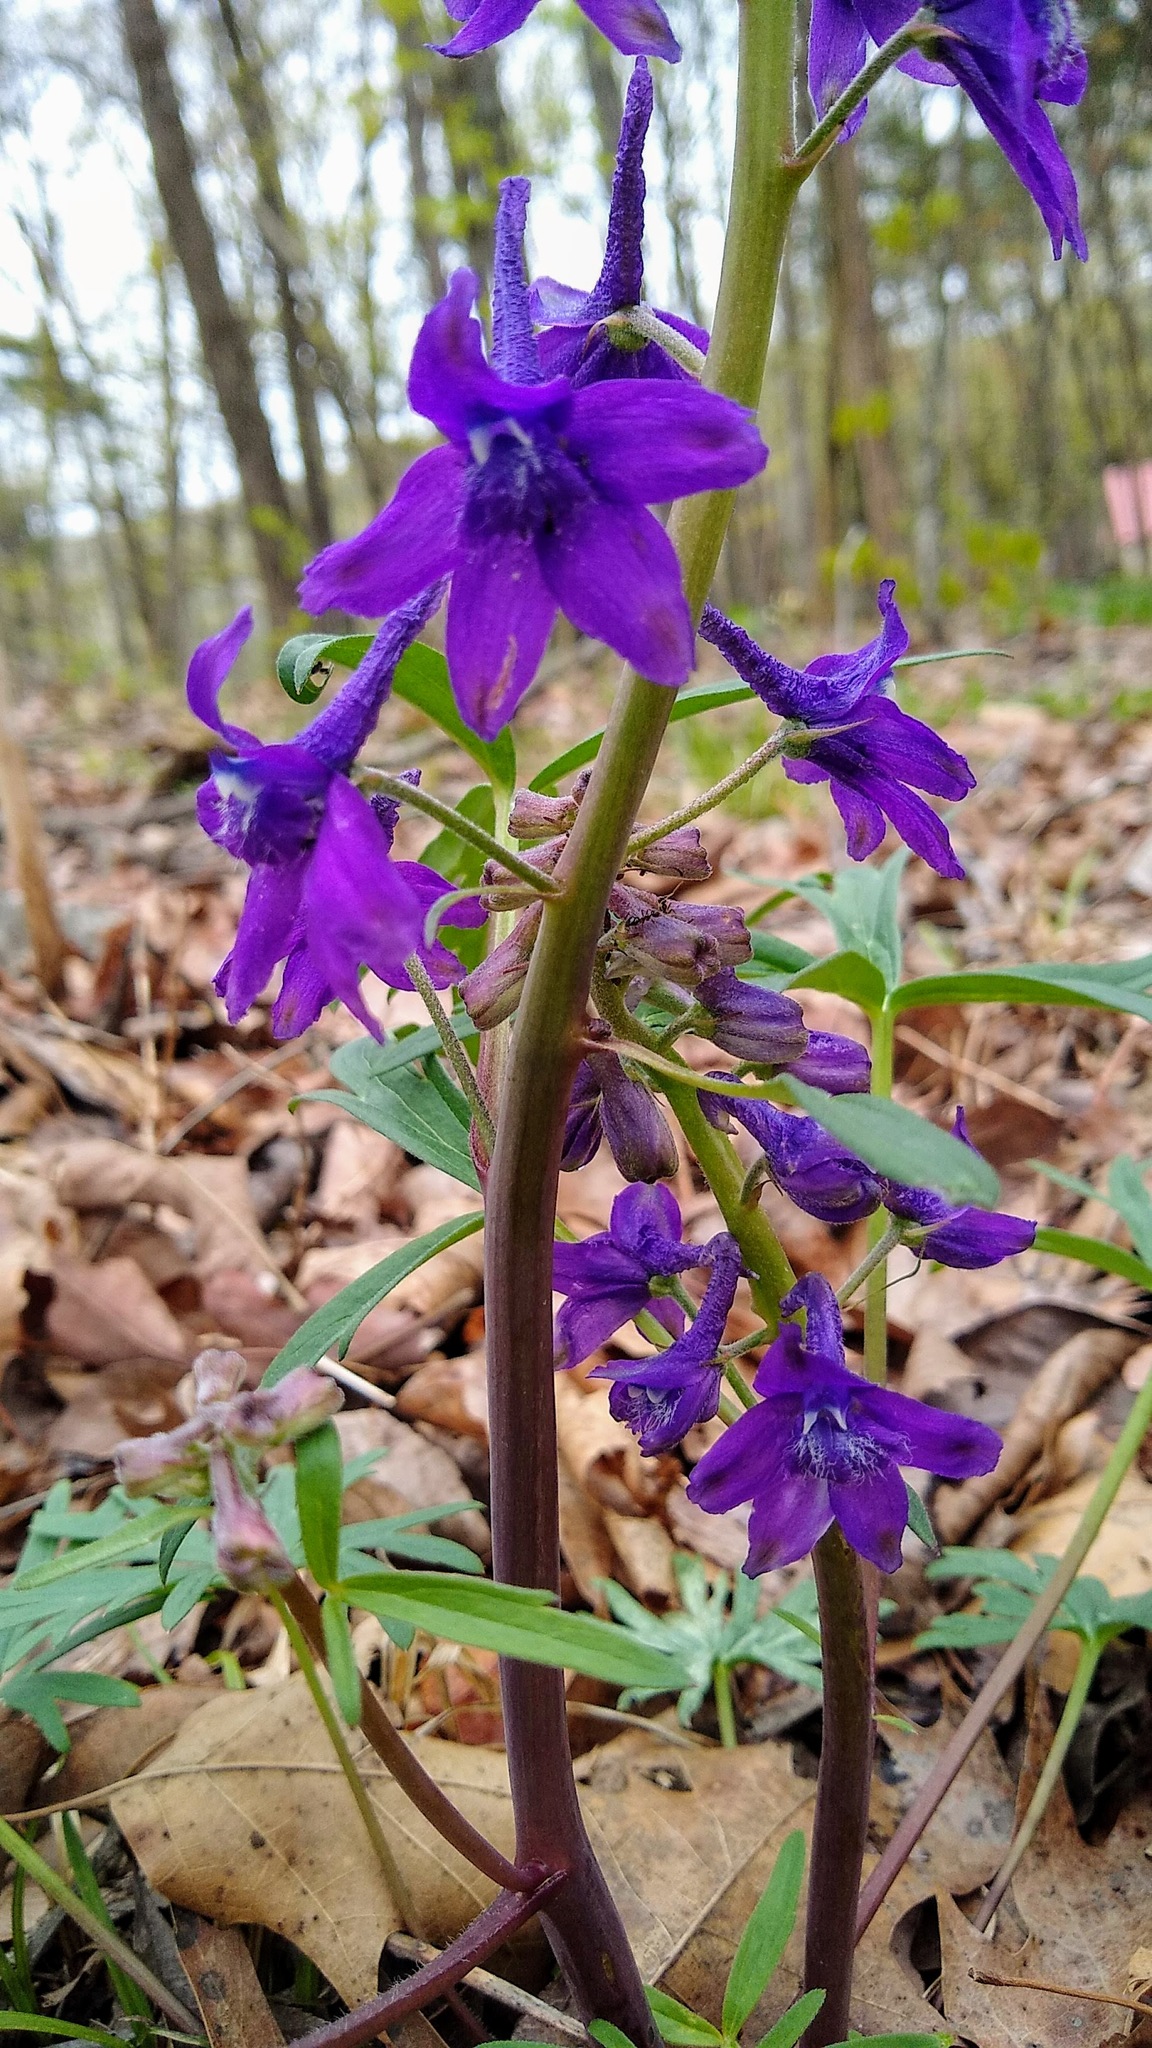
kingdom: Plantae
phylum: Tracheophyta
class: Magnoliopsida
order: Ranunculales
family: Ranunculaceae
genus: Delphinium
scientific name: Delphinium tricorne
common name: Dwarf larkspur
